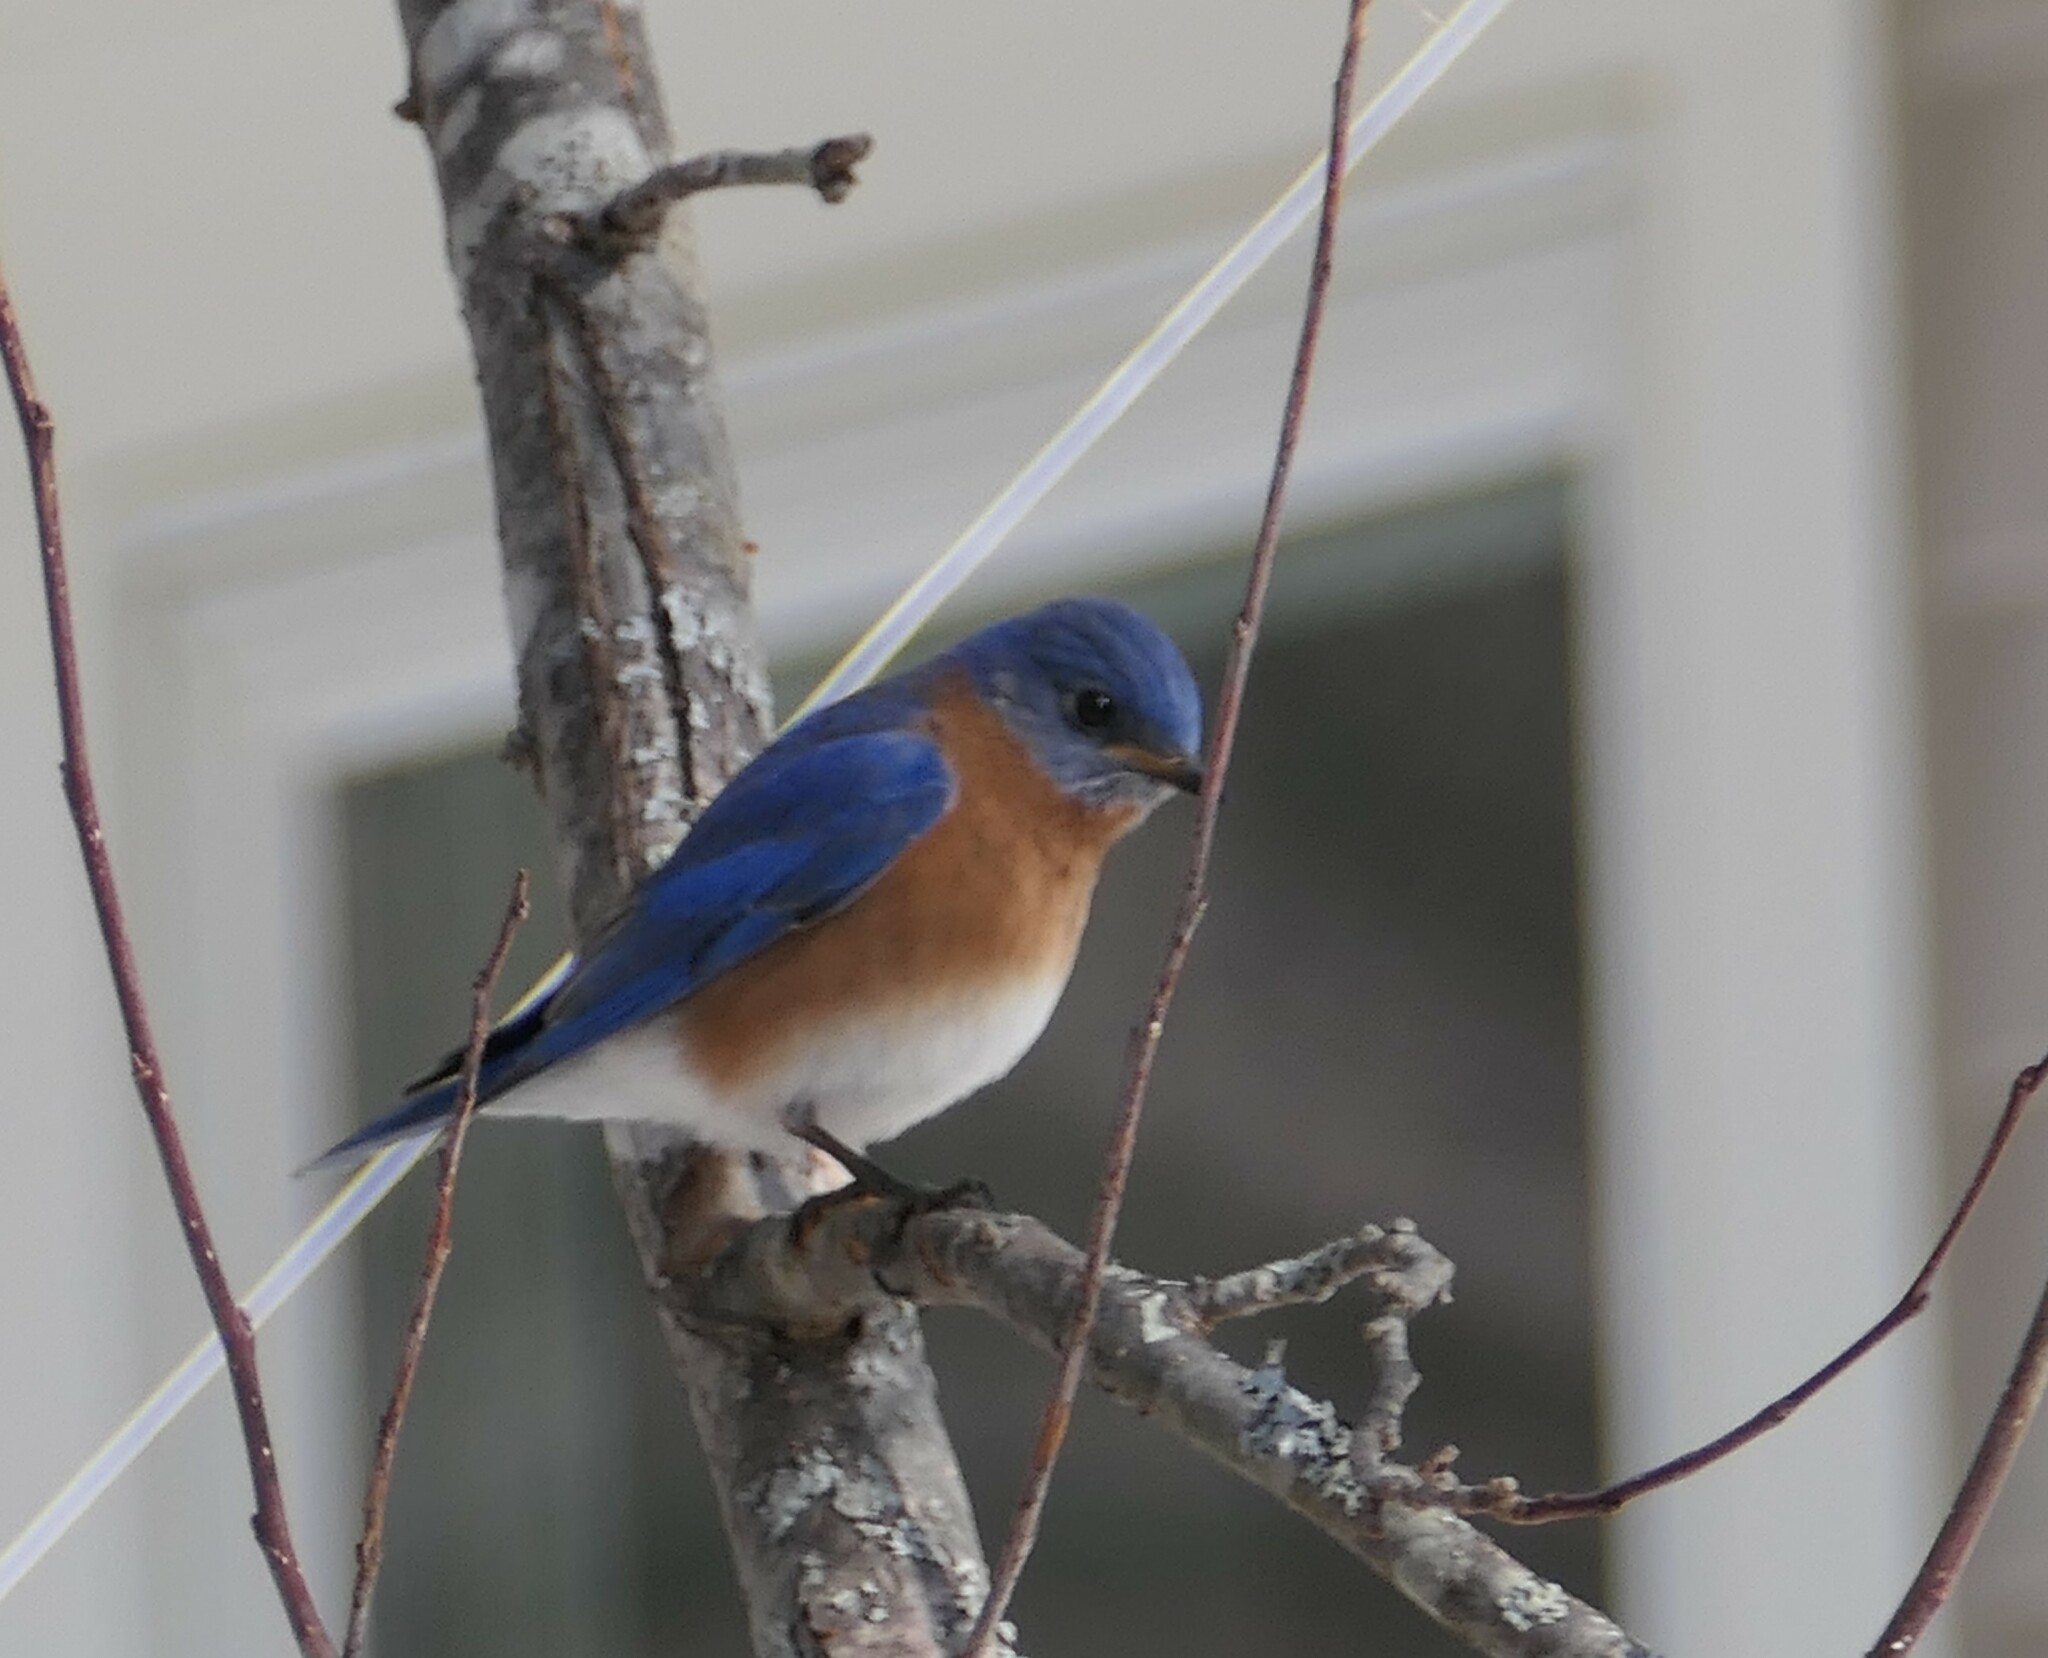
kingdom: Animalia
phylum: Chordata
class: Aves
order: Passeriformes
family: Turdidae
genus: Sialia
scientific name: Sialia sialis
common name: Eastern bluebird
